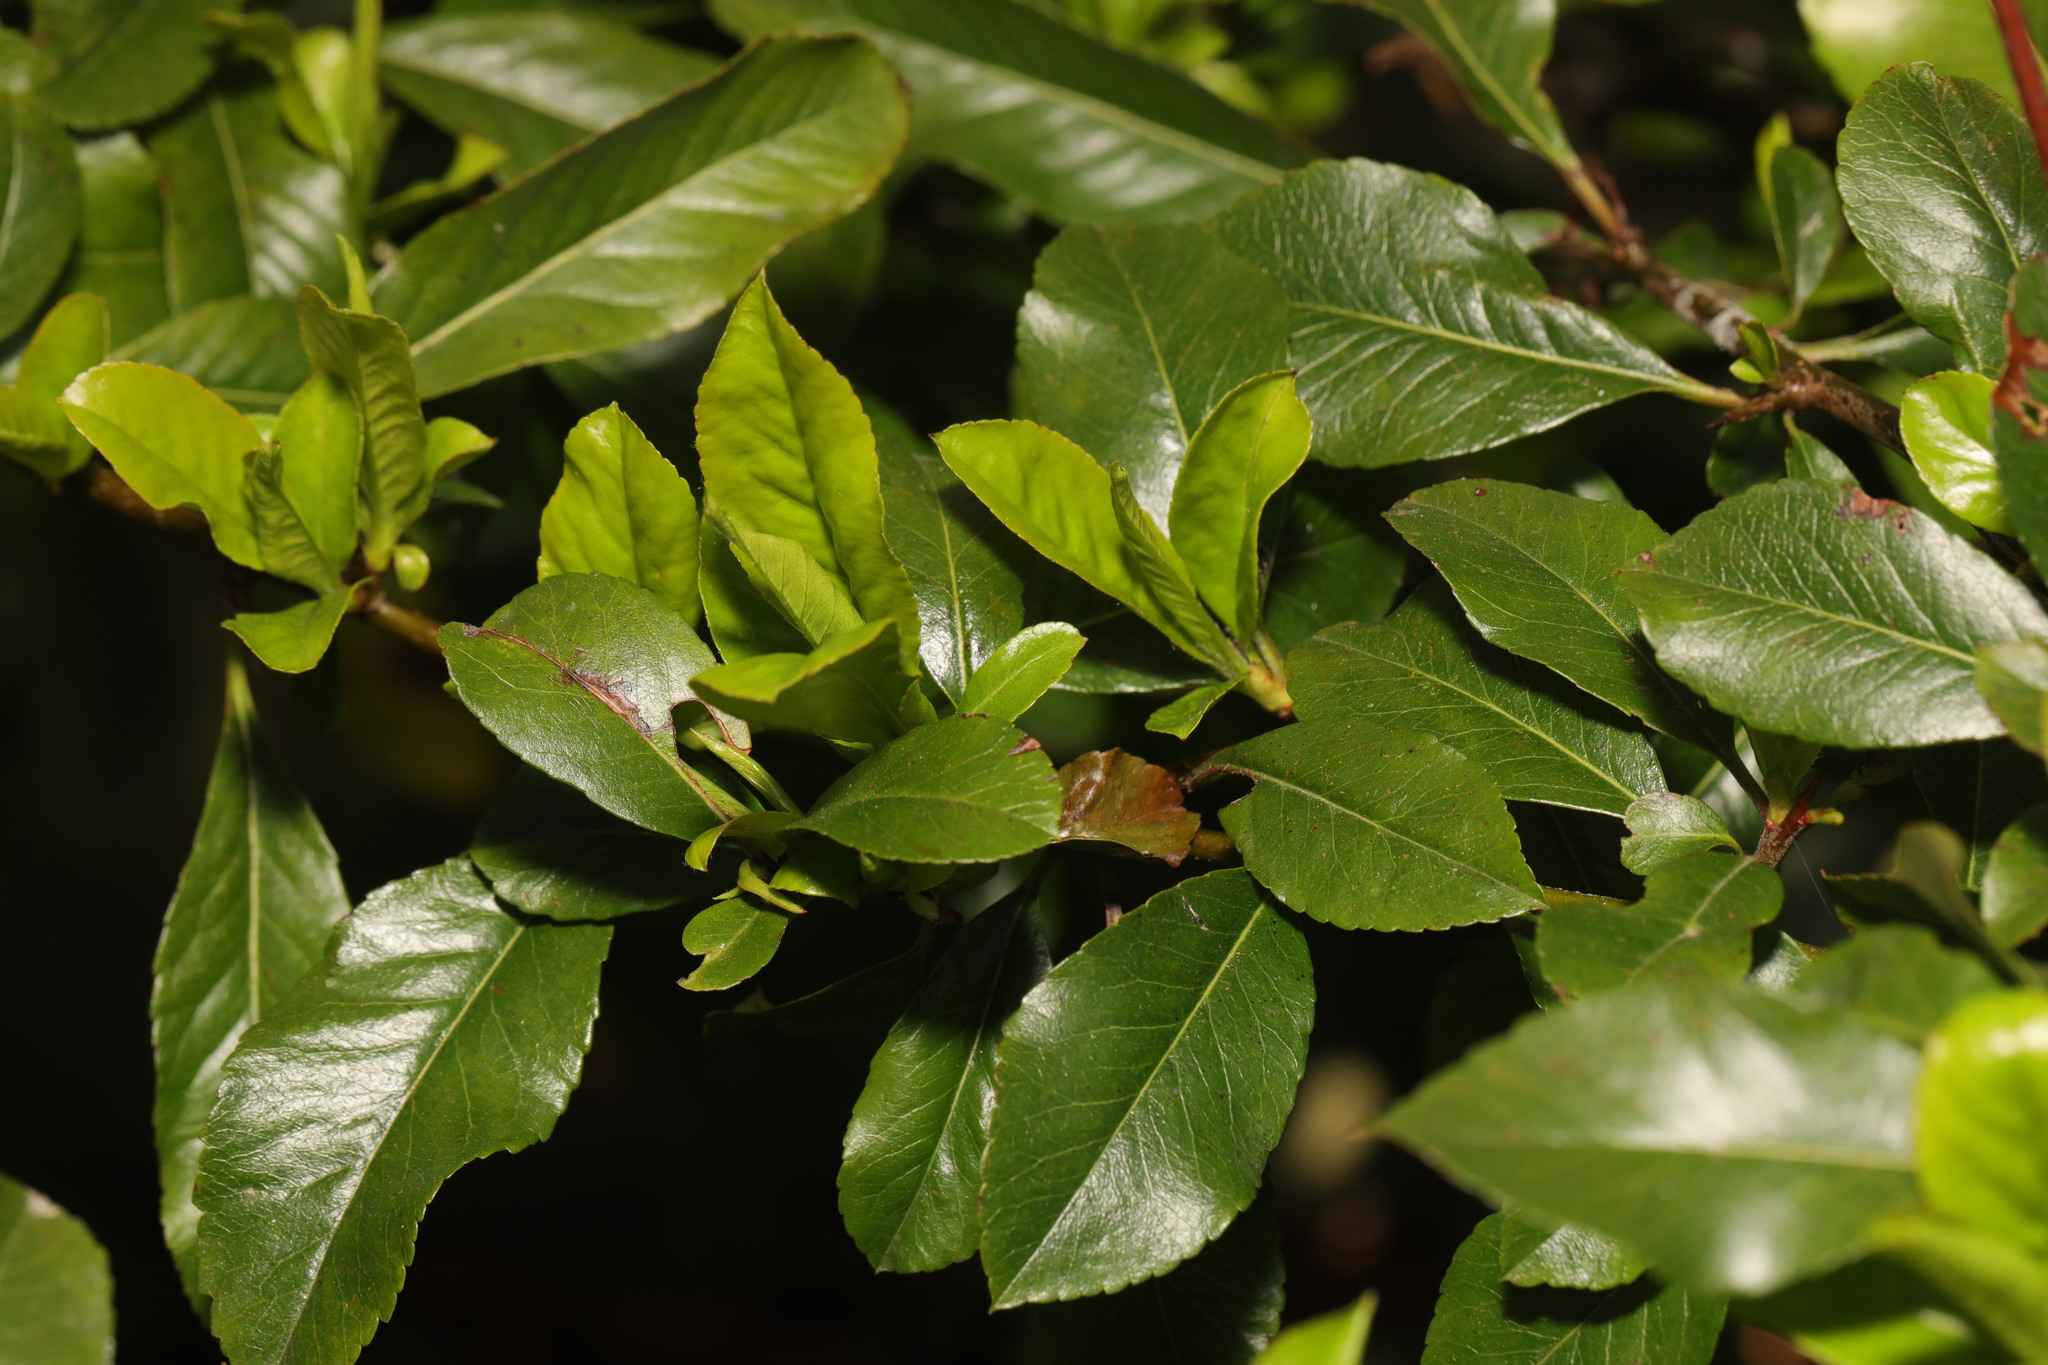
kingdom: Plantae
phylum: Tracheophyta
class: Magnoliopsida
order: Rosales
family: Rosaceae
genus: Pyracantha
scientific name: Pyracantha coccinea
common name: Firethorn
